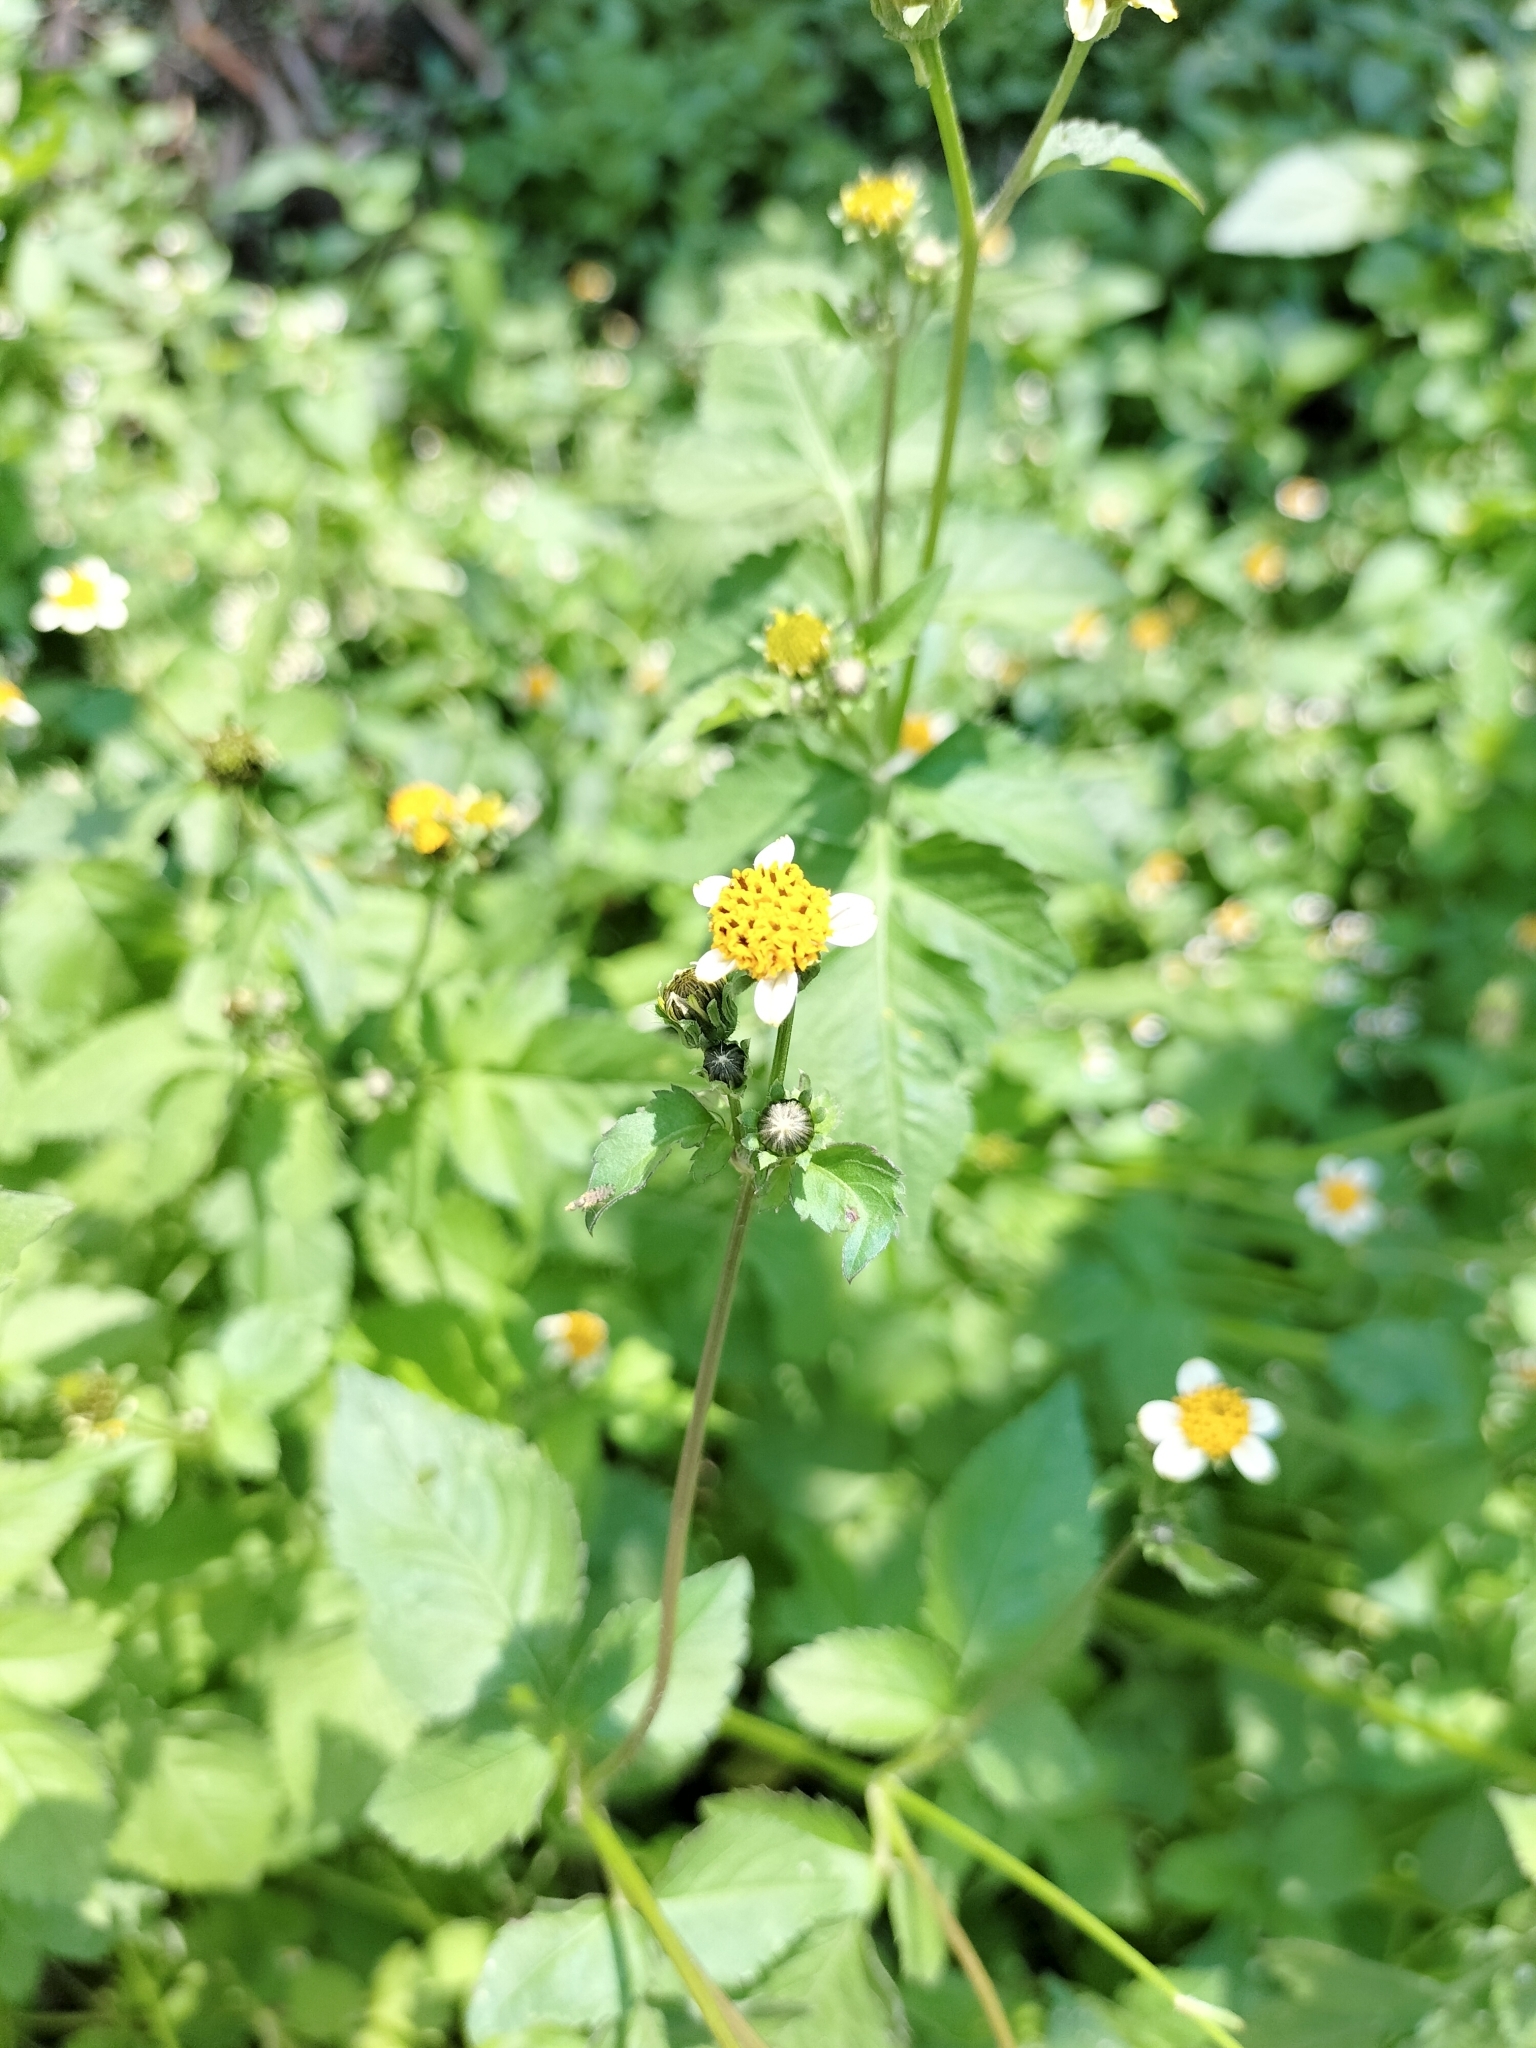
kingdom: Plantae
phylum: Tracheophyta
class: Magnoliopsida
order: Asterales
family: Asteraceae
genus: Bidens
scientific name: Bidens pilosa
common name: Black-jack
